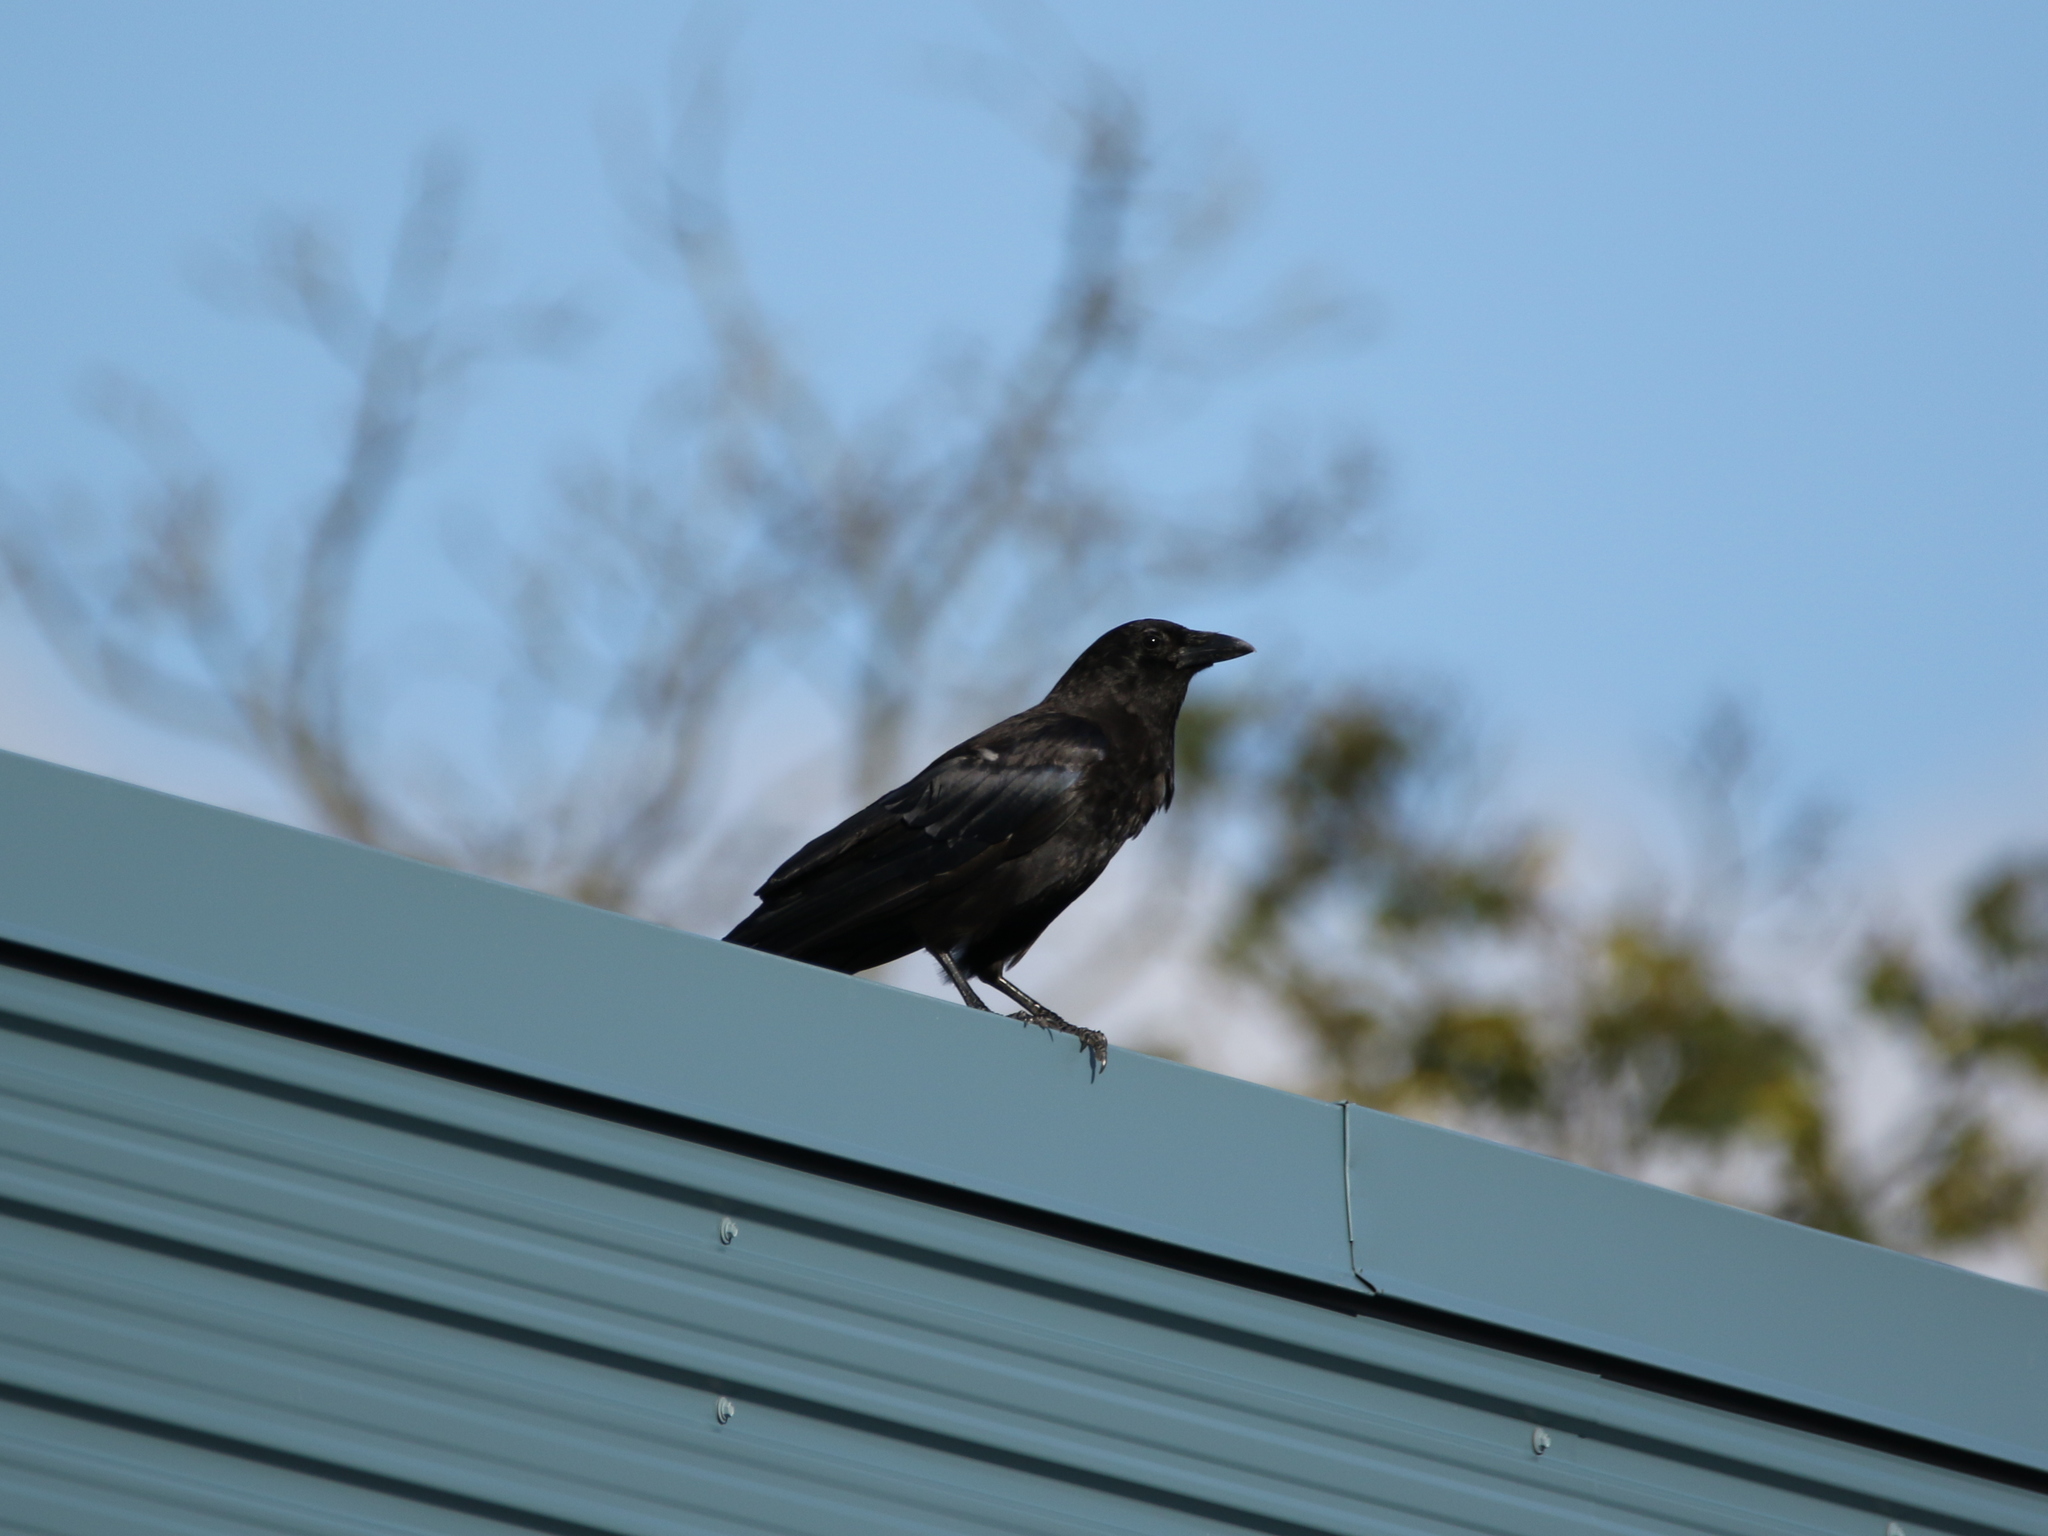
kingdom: Animalia
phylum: Chordata
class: Aves
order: Passeriformes
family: Corvidae
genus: Corvus
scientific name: Corvus brachyrhynchos
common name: American crow
